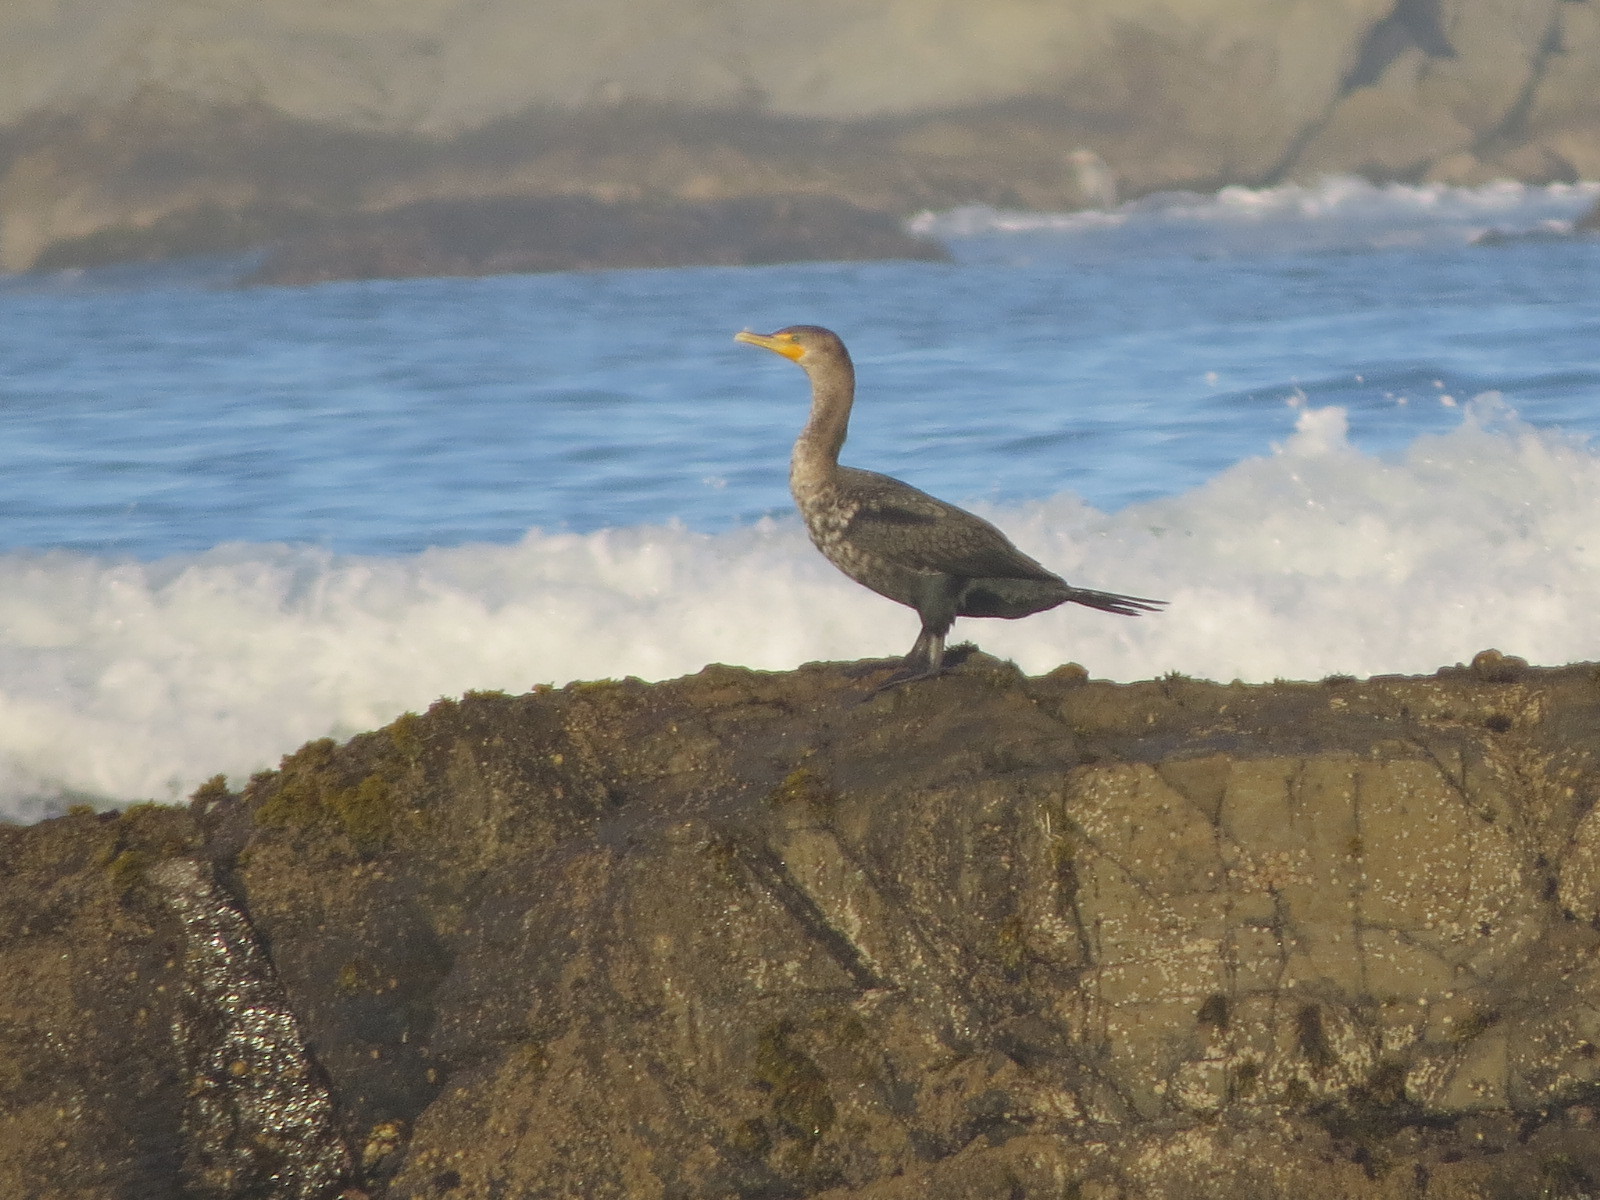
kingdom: Animalia
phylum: Chordata
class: Aves
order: Suliformes
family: Phalacrocoracidae
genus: Phalacrocorax
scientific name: Phalacrocorax auritus
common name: Double-crested cormorant
